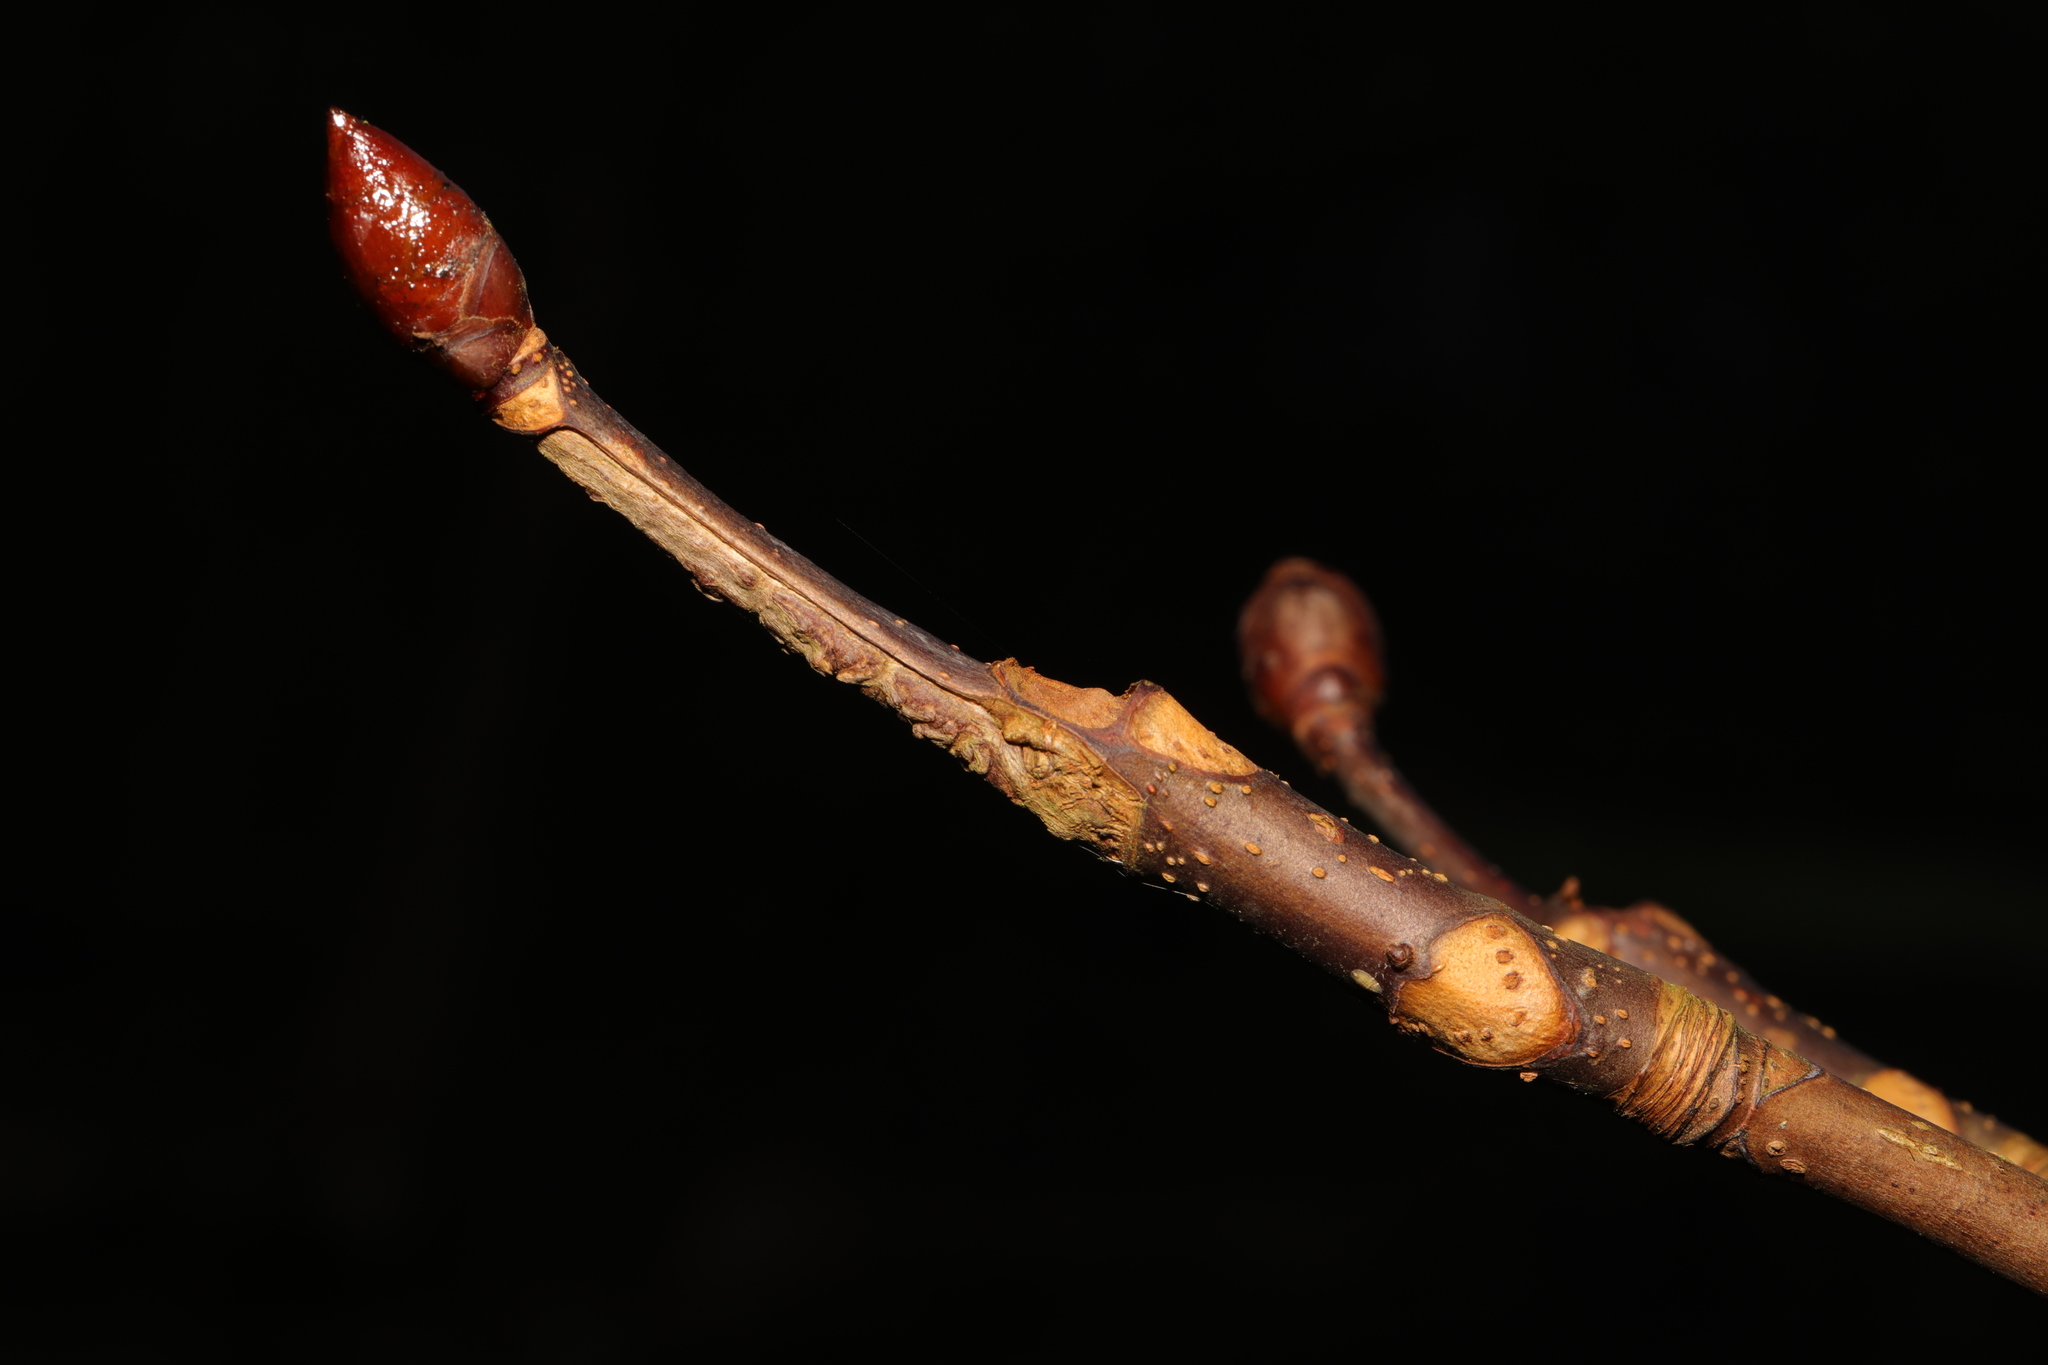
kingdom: Plantae
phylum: Tracheophyta
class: Magnoliopsida
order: Sapindales
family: Sapindaceae
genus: Aesculus
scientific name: Aesculus hippocastanum
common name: Horse-chestnut
